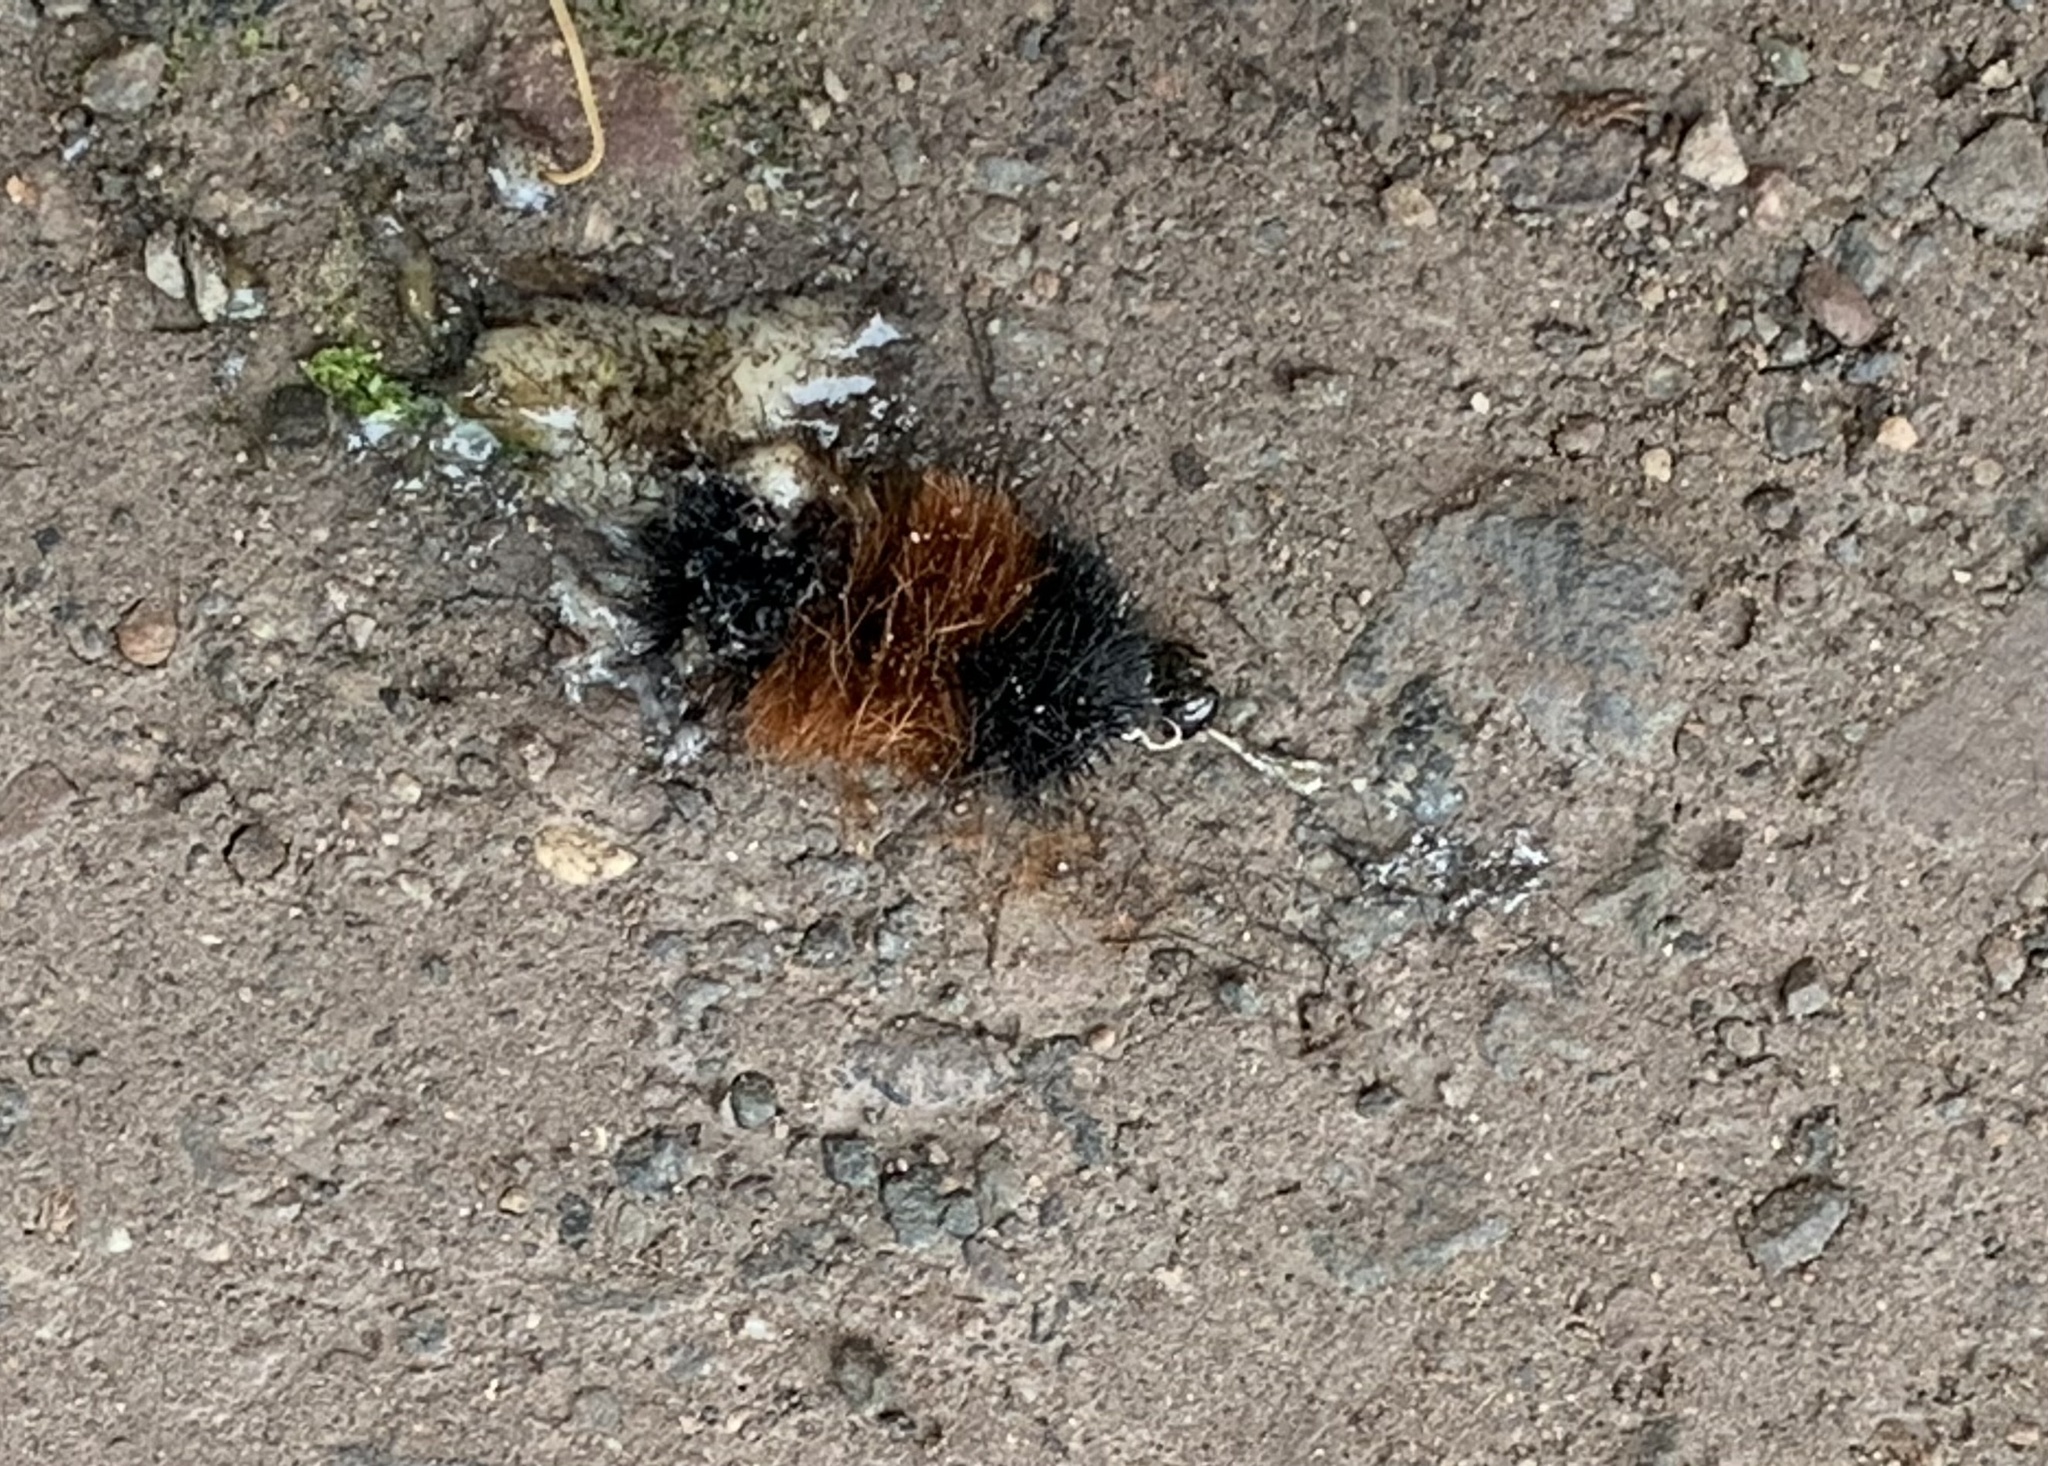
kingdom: Animalia
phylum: Arthropoda
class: Insecta
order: Lepidoptera
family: Erebidae
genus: Pyrrharctia
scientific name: Pyrrharctia isabella
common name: Isabella tiger moth
